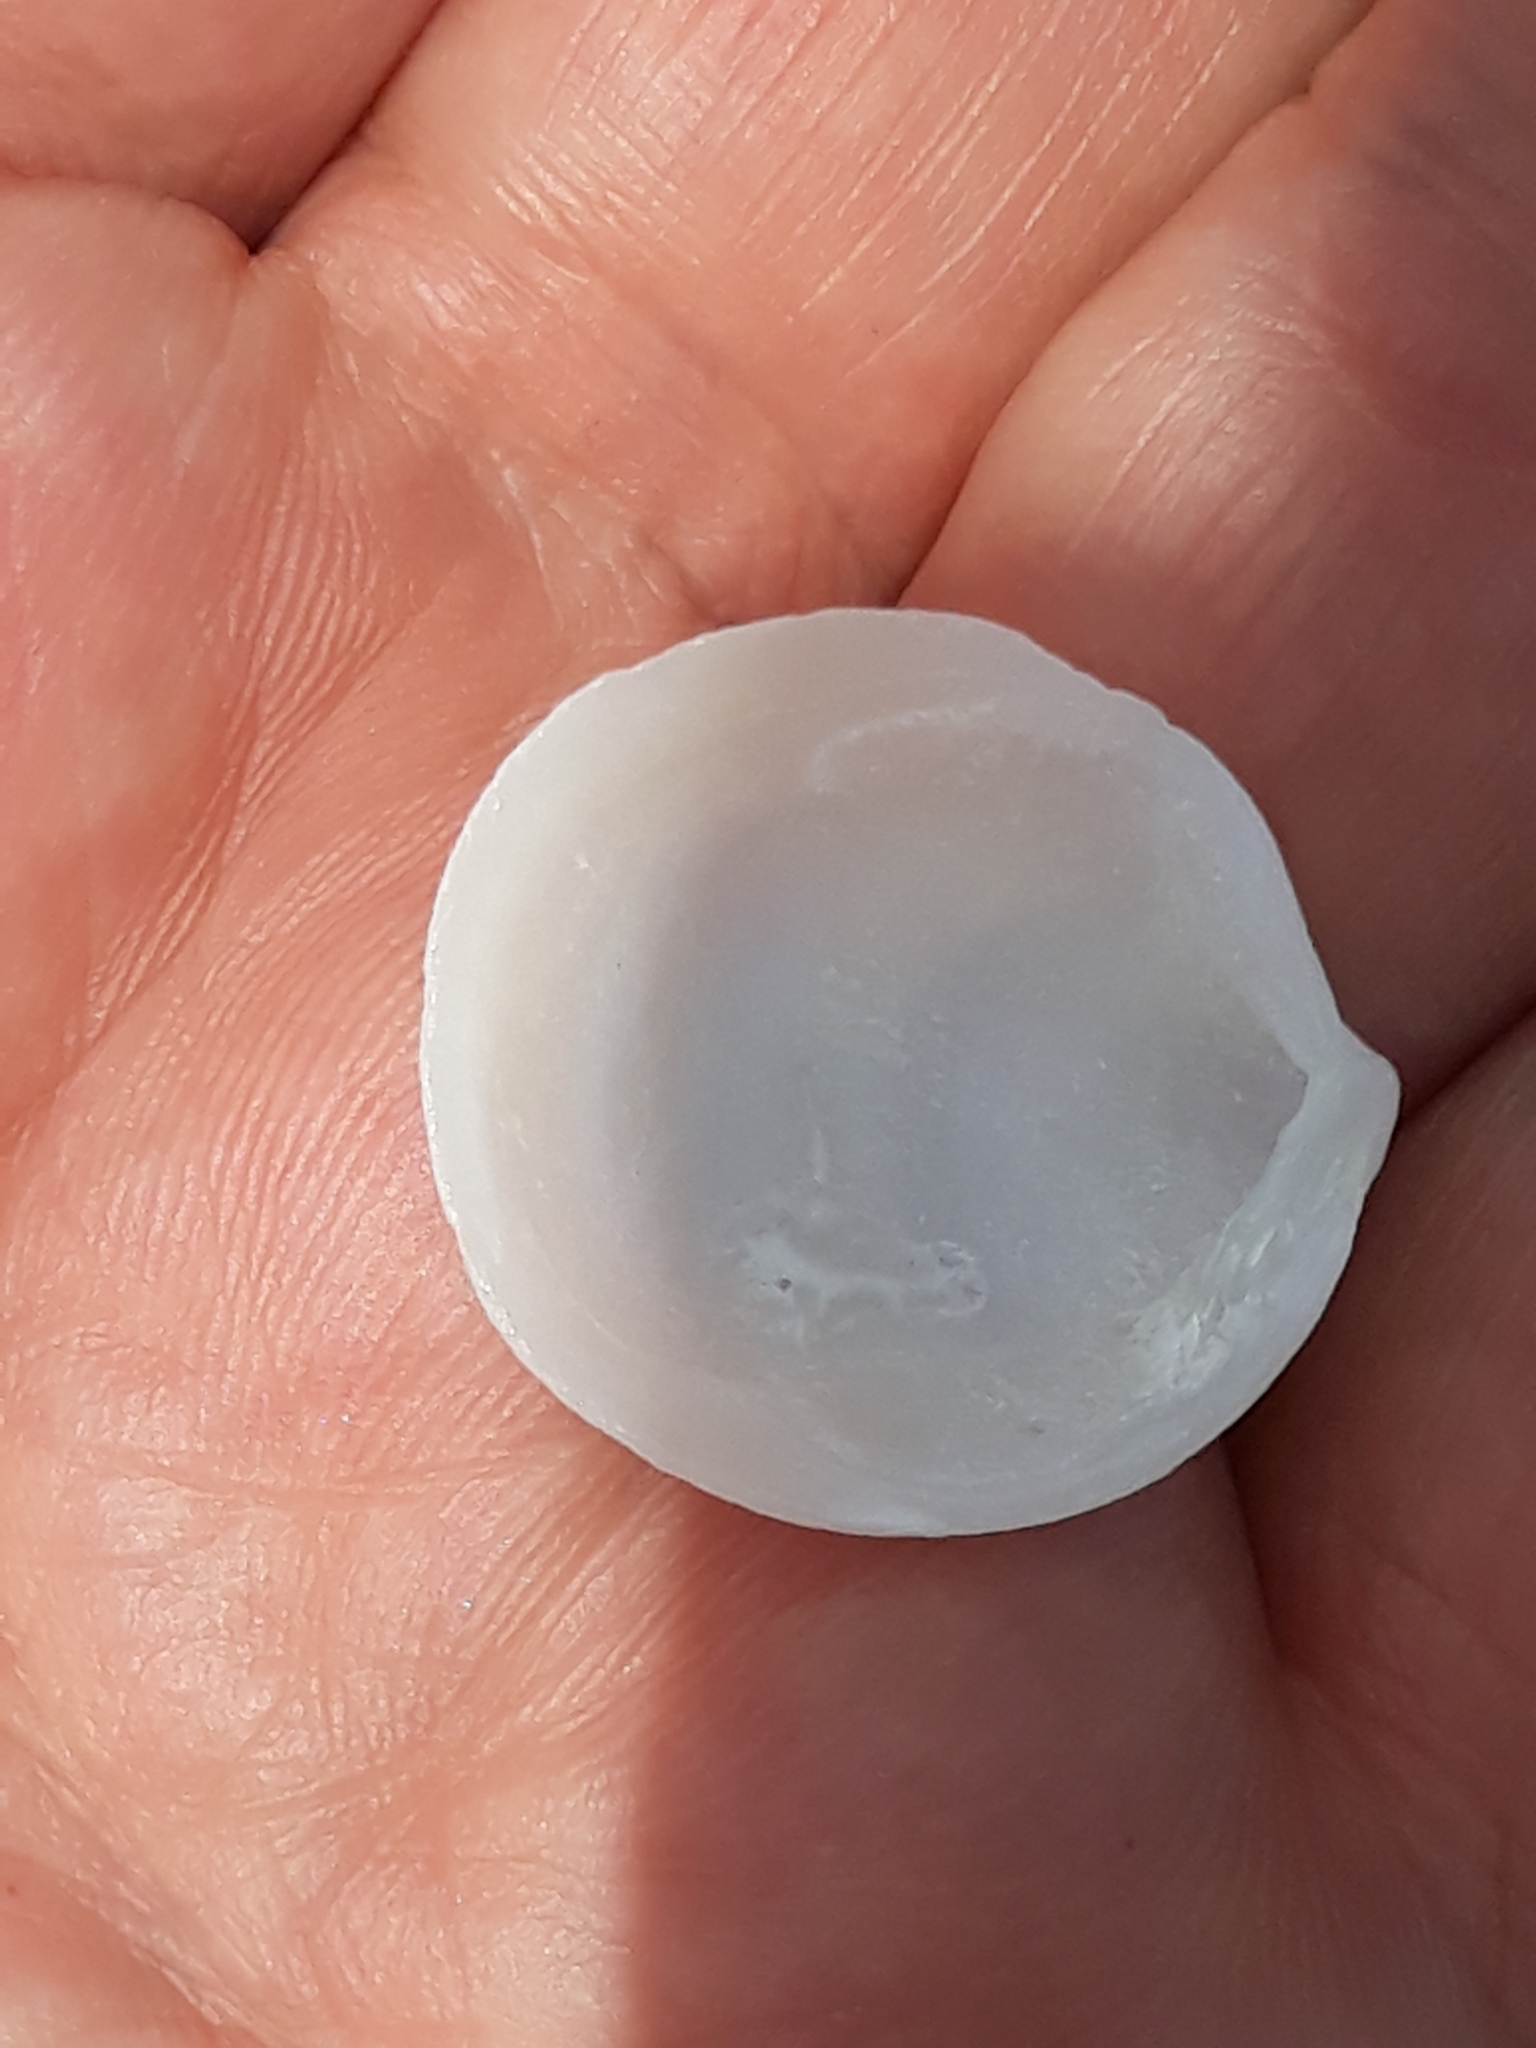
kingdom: Animalia
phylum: Mollusca
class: Bivalvia
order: Lucinida
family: Lucinidae
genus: Loripes
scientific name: Loripes orbiculatus
